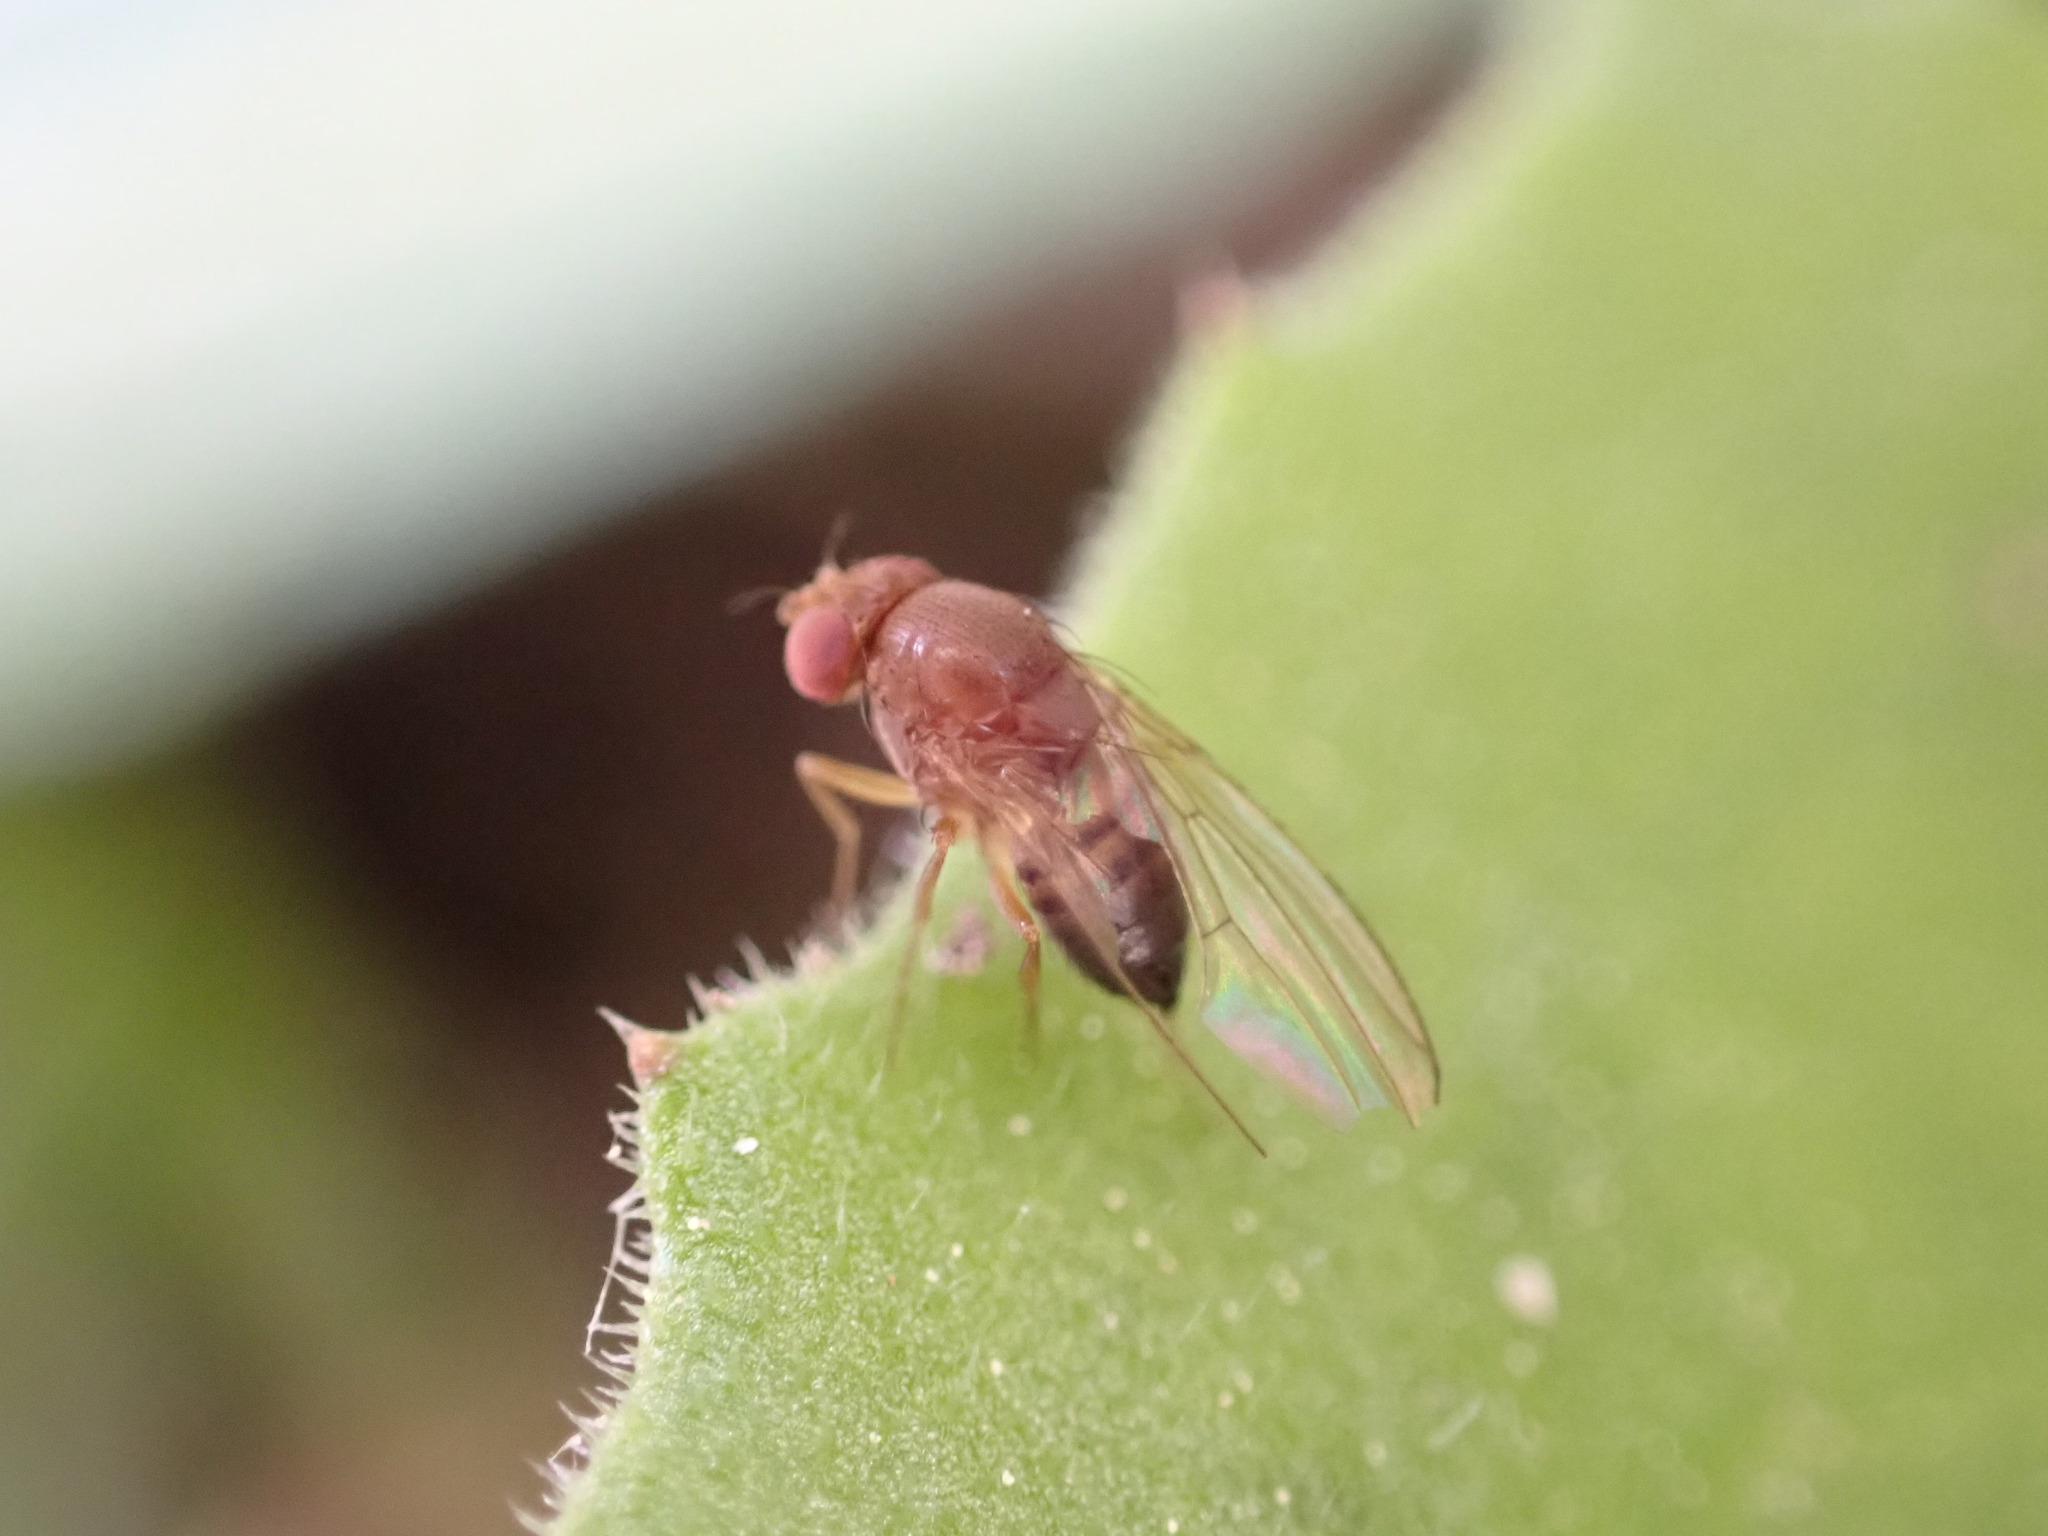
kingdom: Animalia
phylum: Arthropoda
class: Insecta
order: Diptera
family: Drosophilidae
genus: Drosophila
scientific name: Drosophila suzukii
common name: Spotted-wing drosophila
